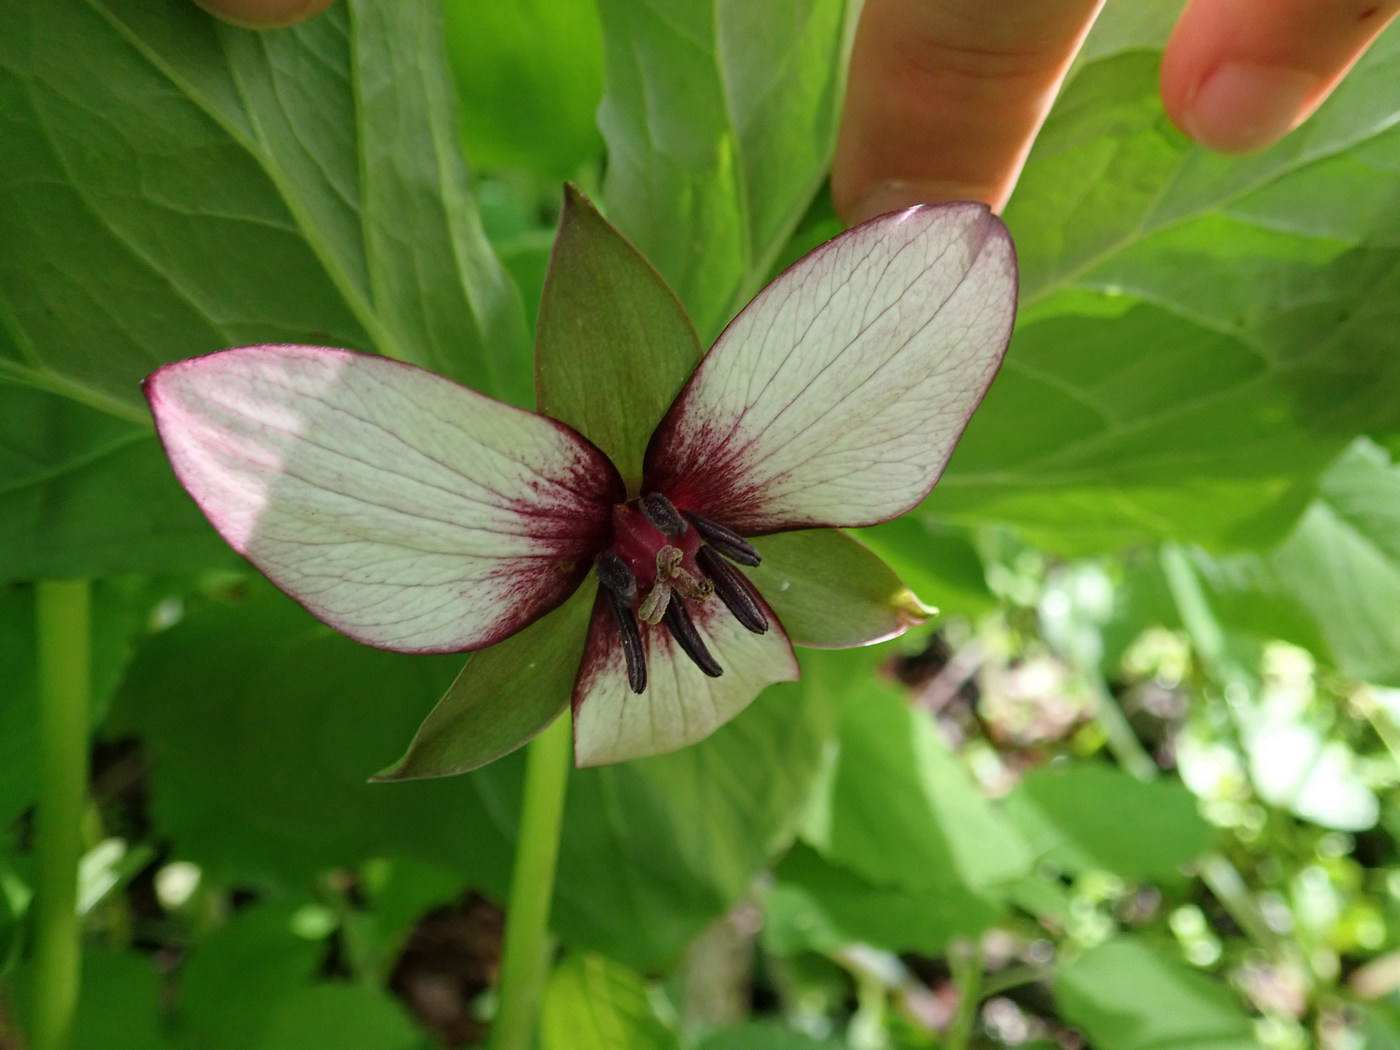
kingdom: Plantae
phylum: Tracheophyta
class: Liliopsida
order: Liliales
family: Melanthiaceae
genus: Trillium
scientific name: Trillium rugelii
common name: Ill-scented trillium
